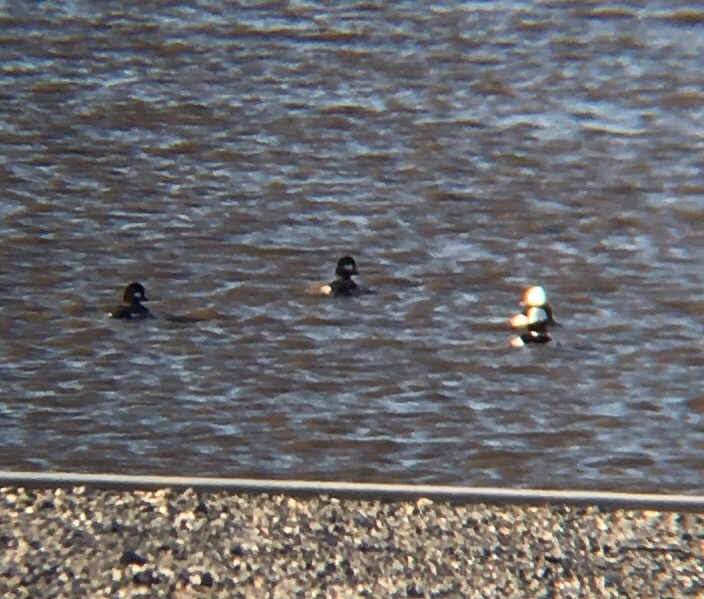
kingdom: Animalia
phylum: Chordata
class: Aves
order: Anseriformes
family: Anatidae
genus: Bucephala
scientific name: Bucephala albeola
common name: Bufflehead
